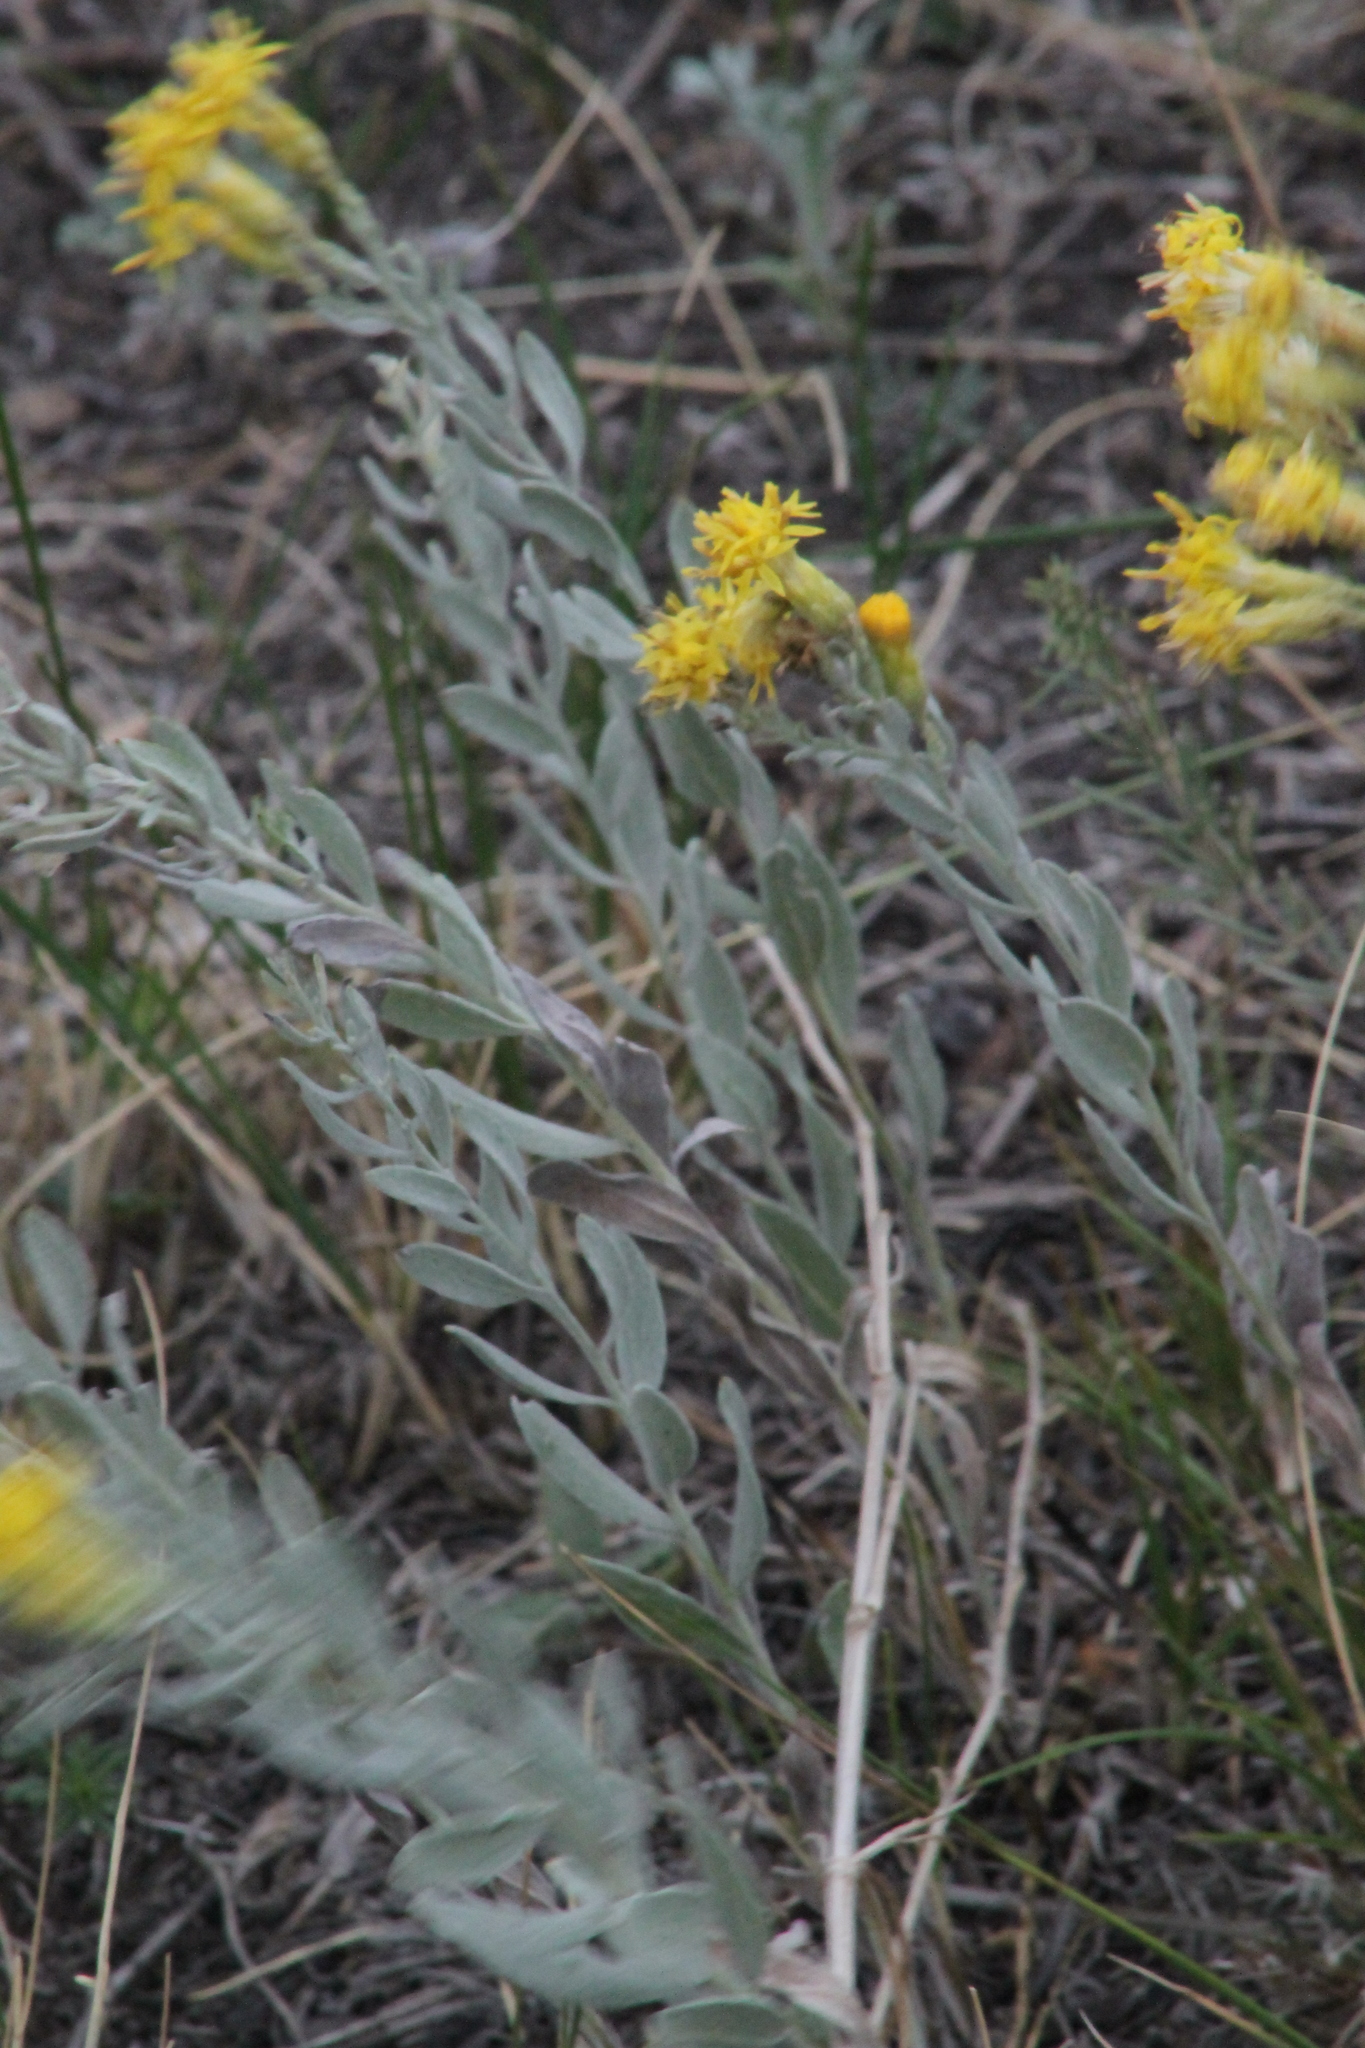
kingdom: Plantae
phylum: Tracheophyta
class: Magnoliopsida
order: Asterales
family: Asteraceae
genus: Galatella
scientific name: Galatella villosa
